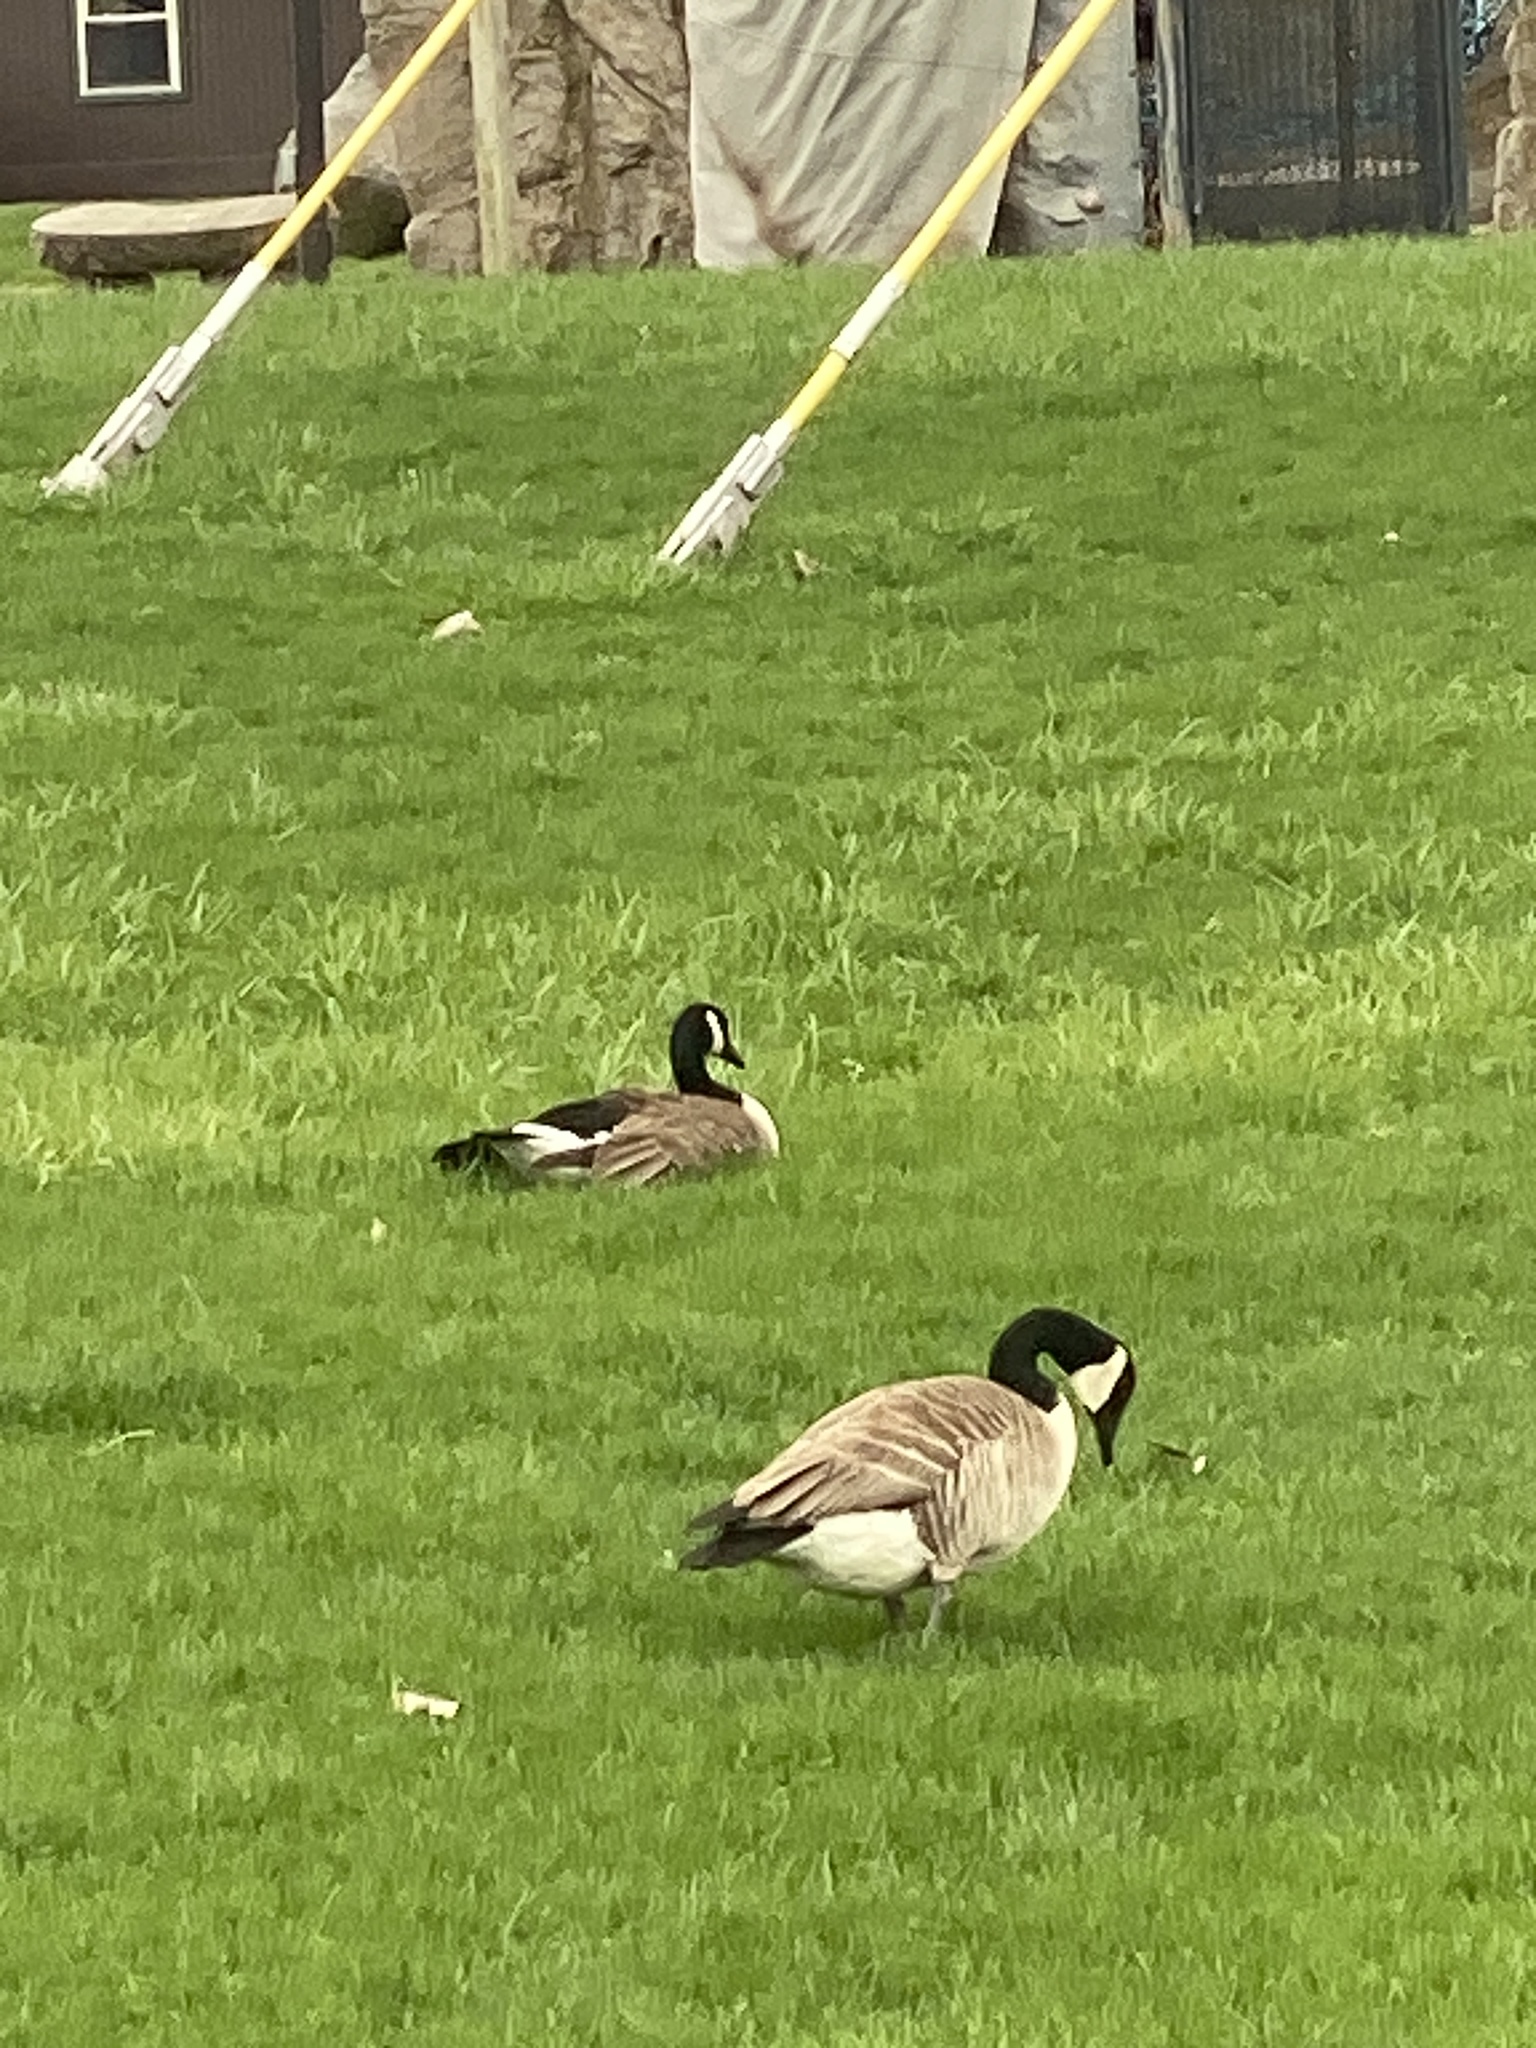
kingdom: Animalia
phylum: Chordata
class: Aves
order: Anseriformes
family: Anatidae
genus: Branta
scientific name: Branta canadensis
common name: Canada goose
